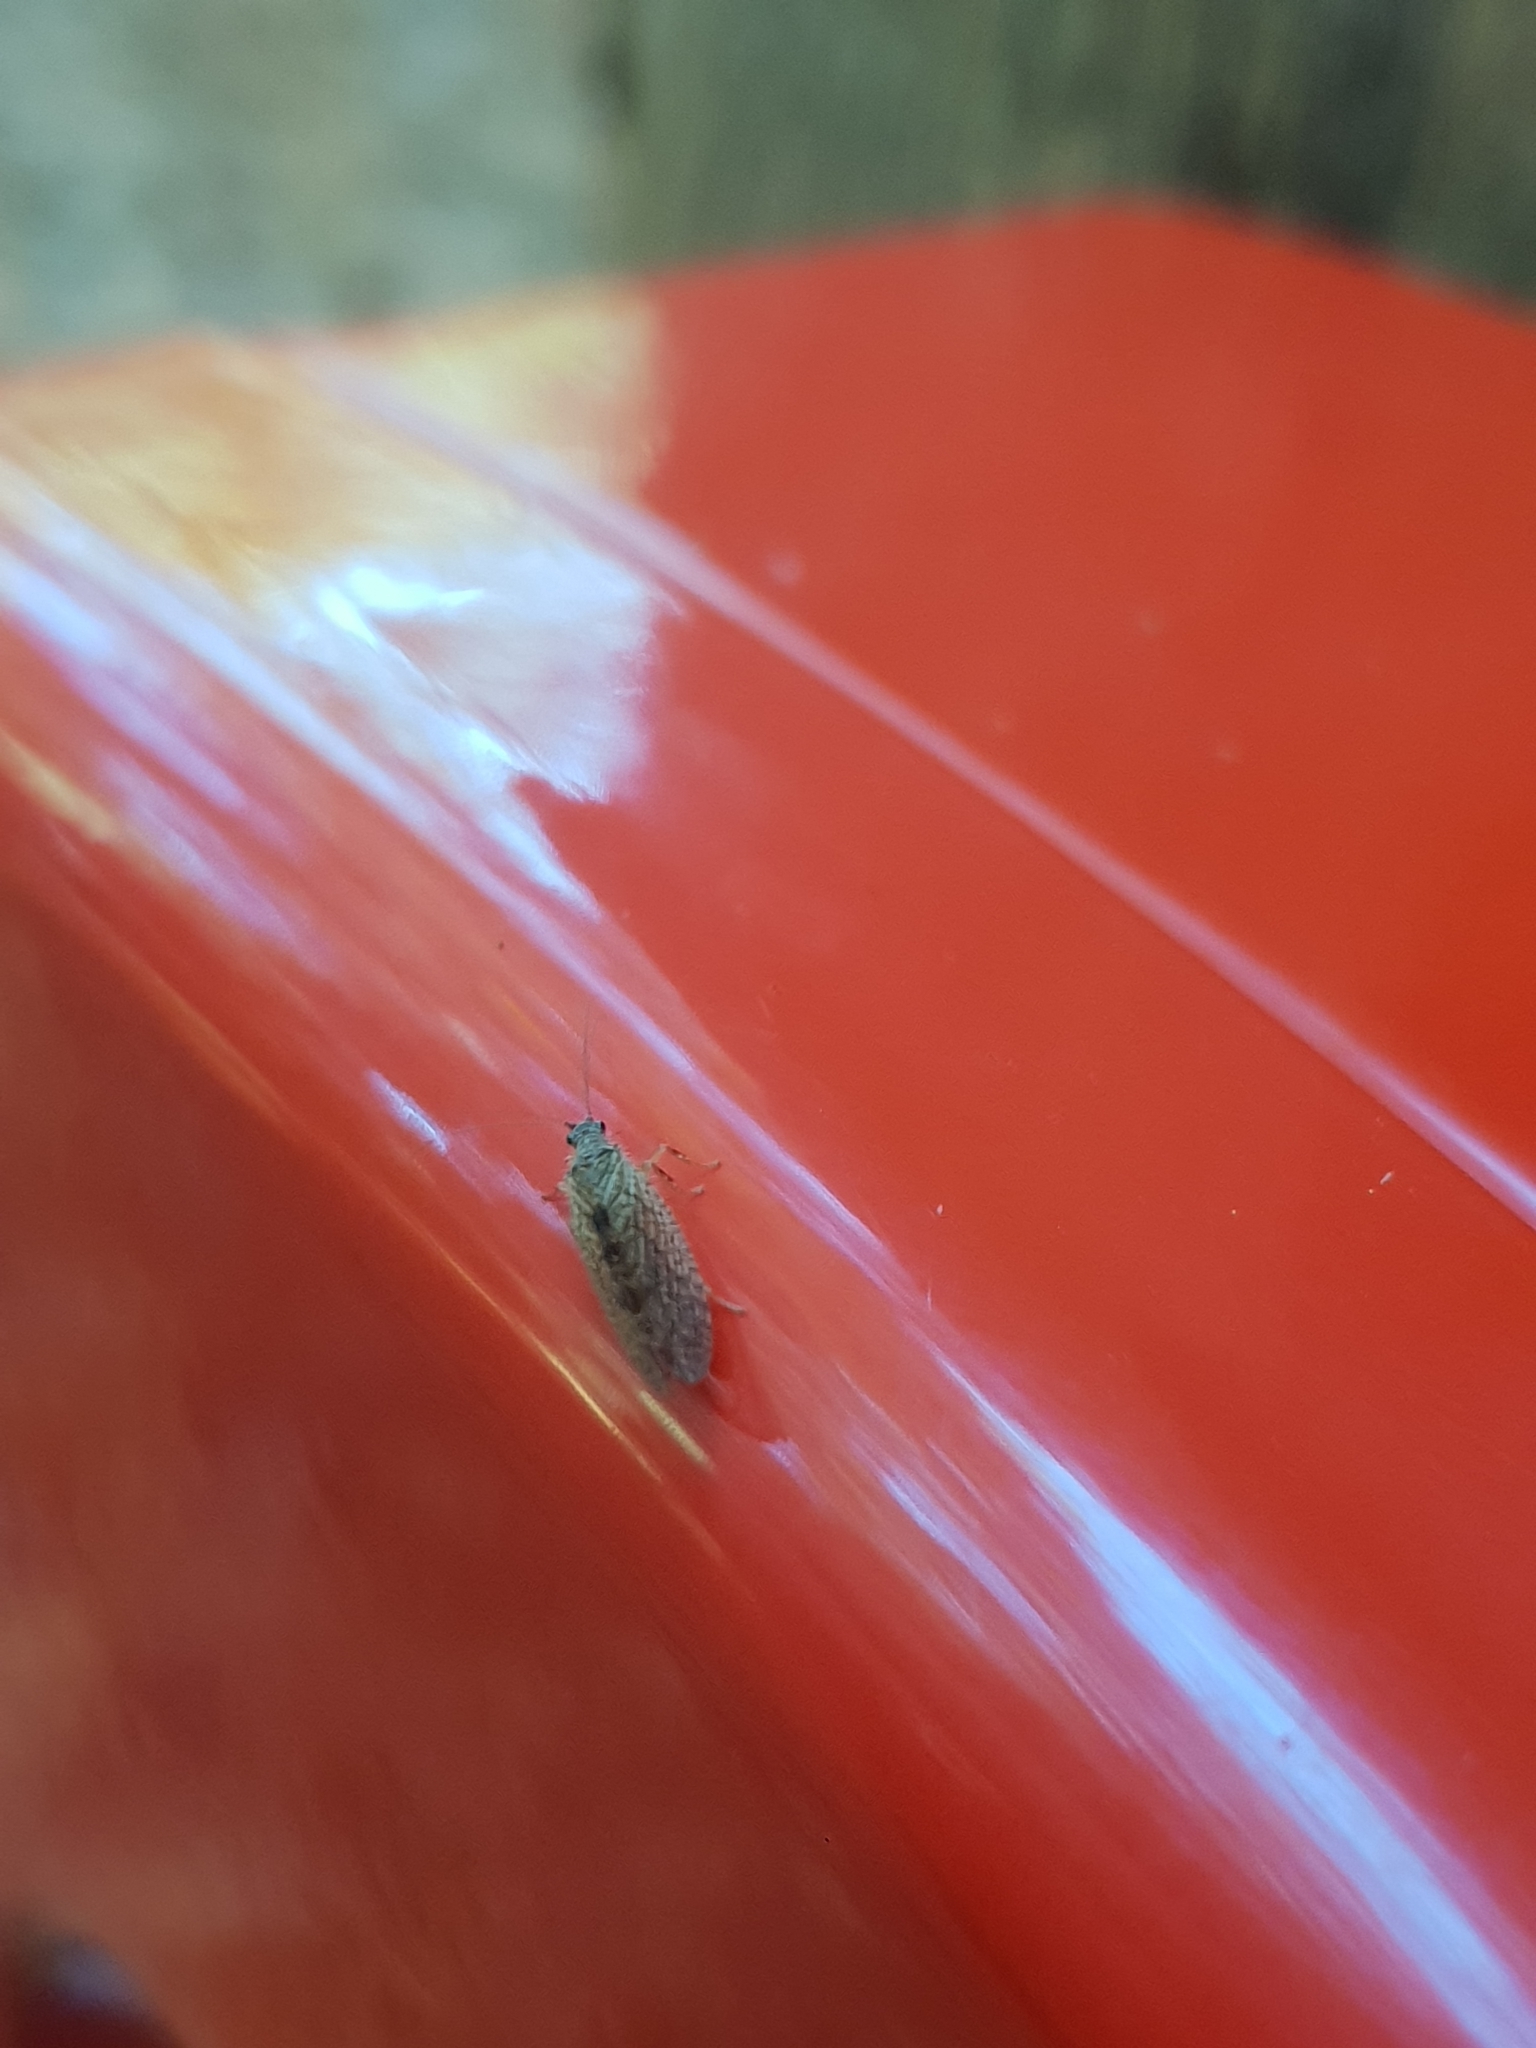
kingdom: Animalia
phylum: Arthropoda
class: Insecta
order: Neuroptera
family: Hemerobiidae
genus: Micromus
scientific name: Micromus angulatus
